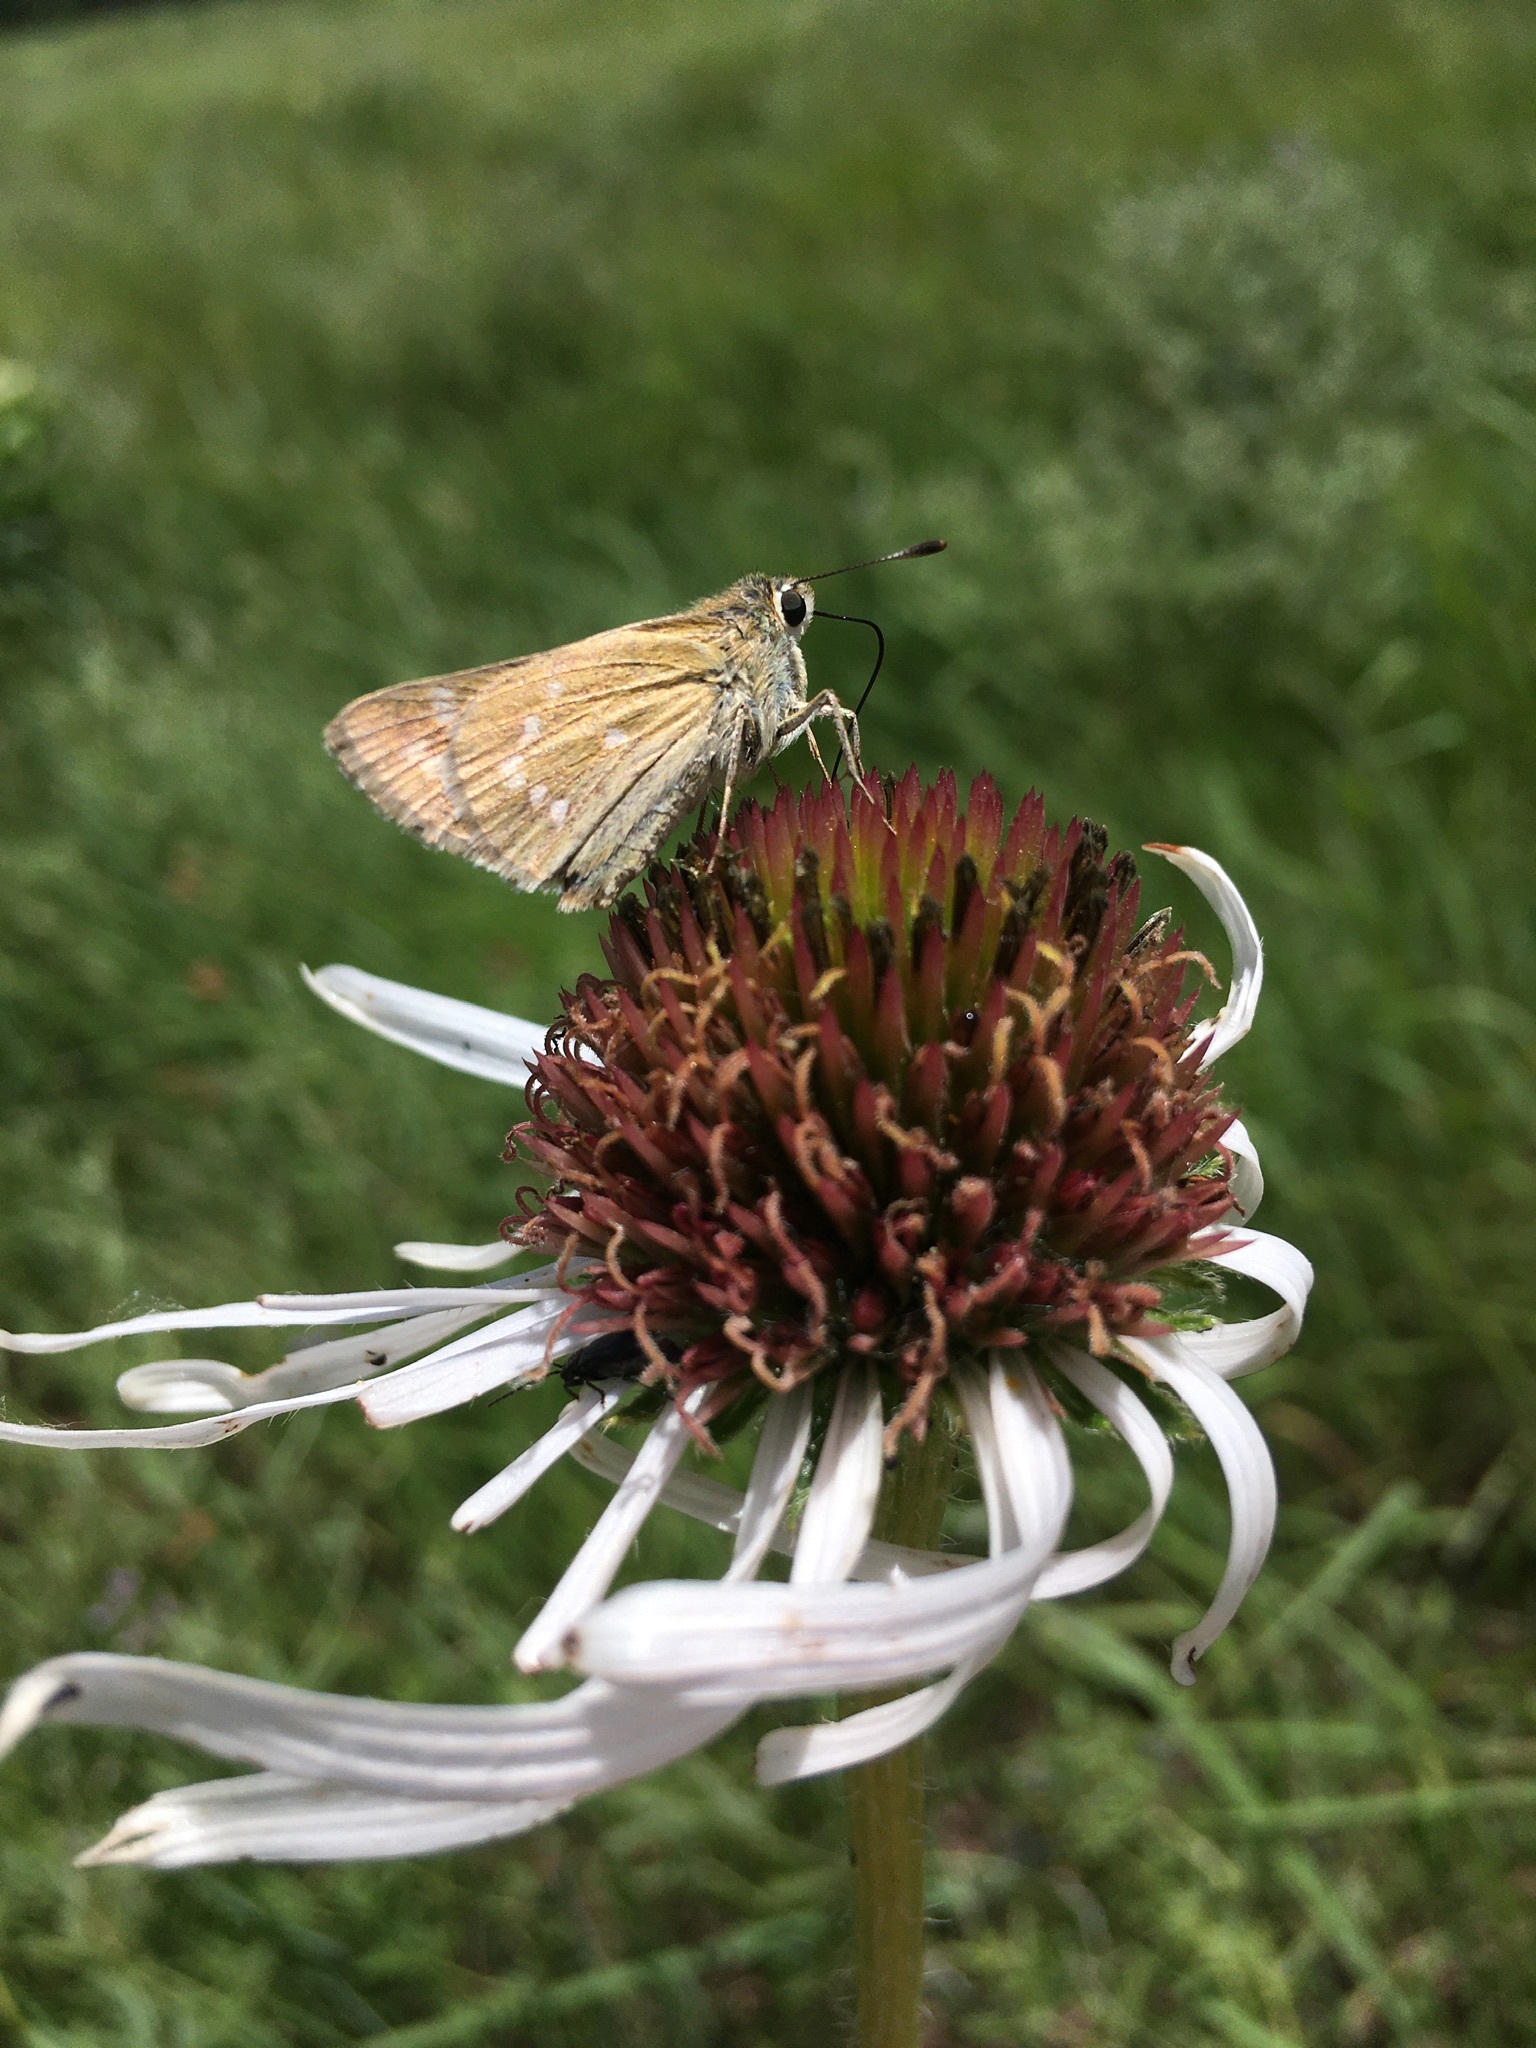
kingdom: Animalia
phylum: Arthropoda
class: Insecta
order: Lepidoptera
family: Hesperiidae
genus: Atalopedes
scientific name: Atalopedes
